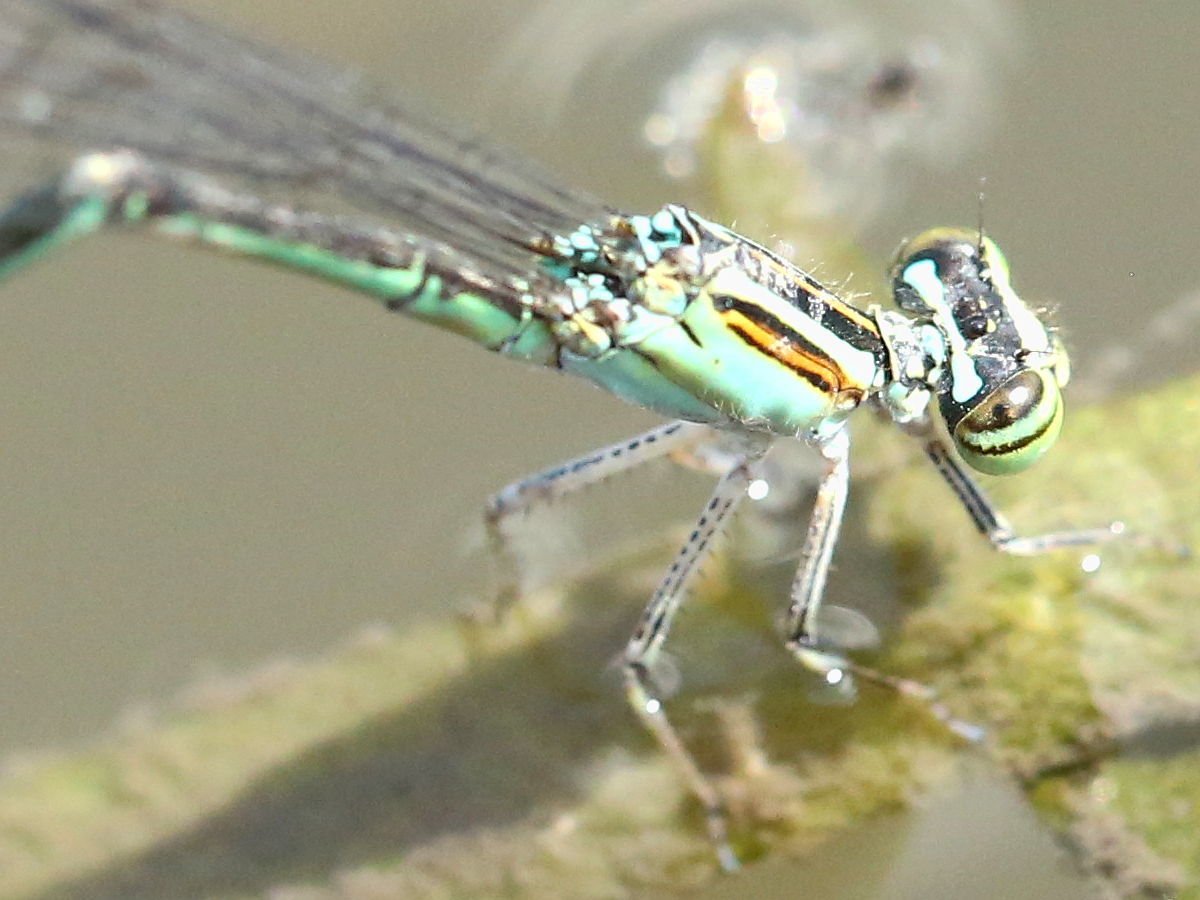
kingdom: Animalia
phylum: Arthropoda
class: Insecta
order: Odonata
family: Coenagrionidae
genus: Enallagma
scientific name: Enallagma exsulans
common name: Stream bluet
